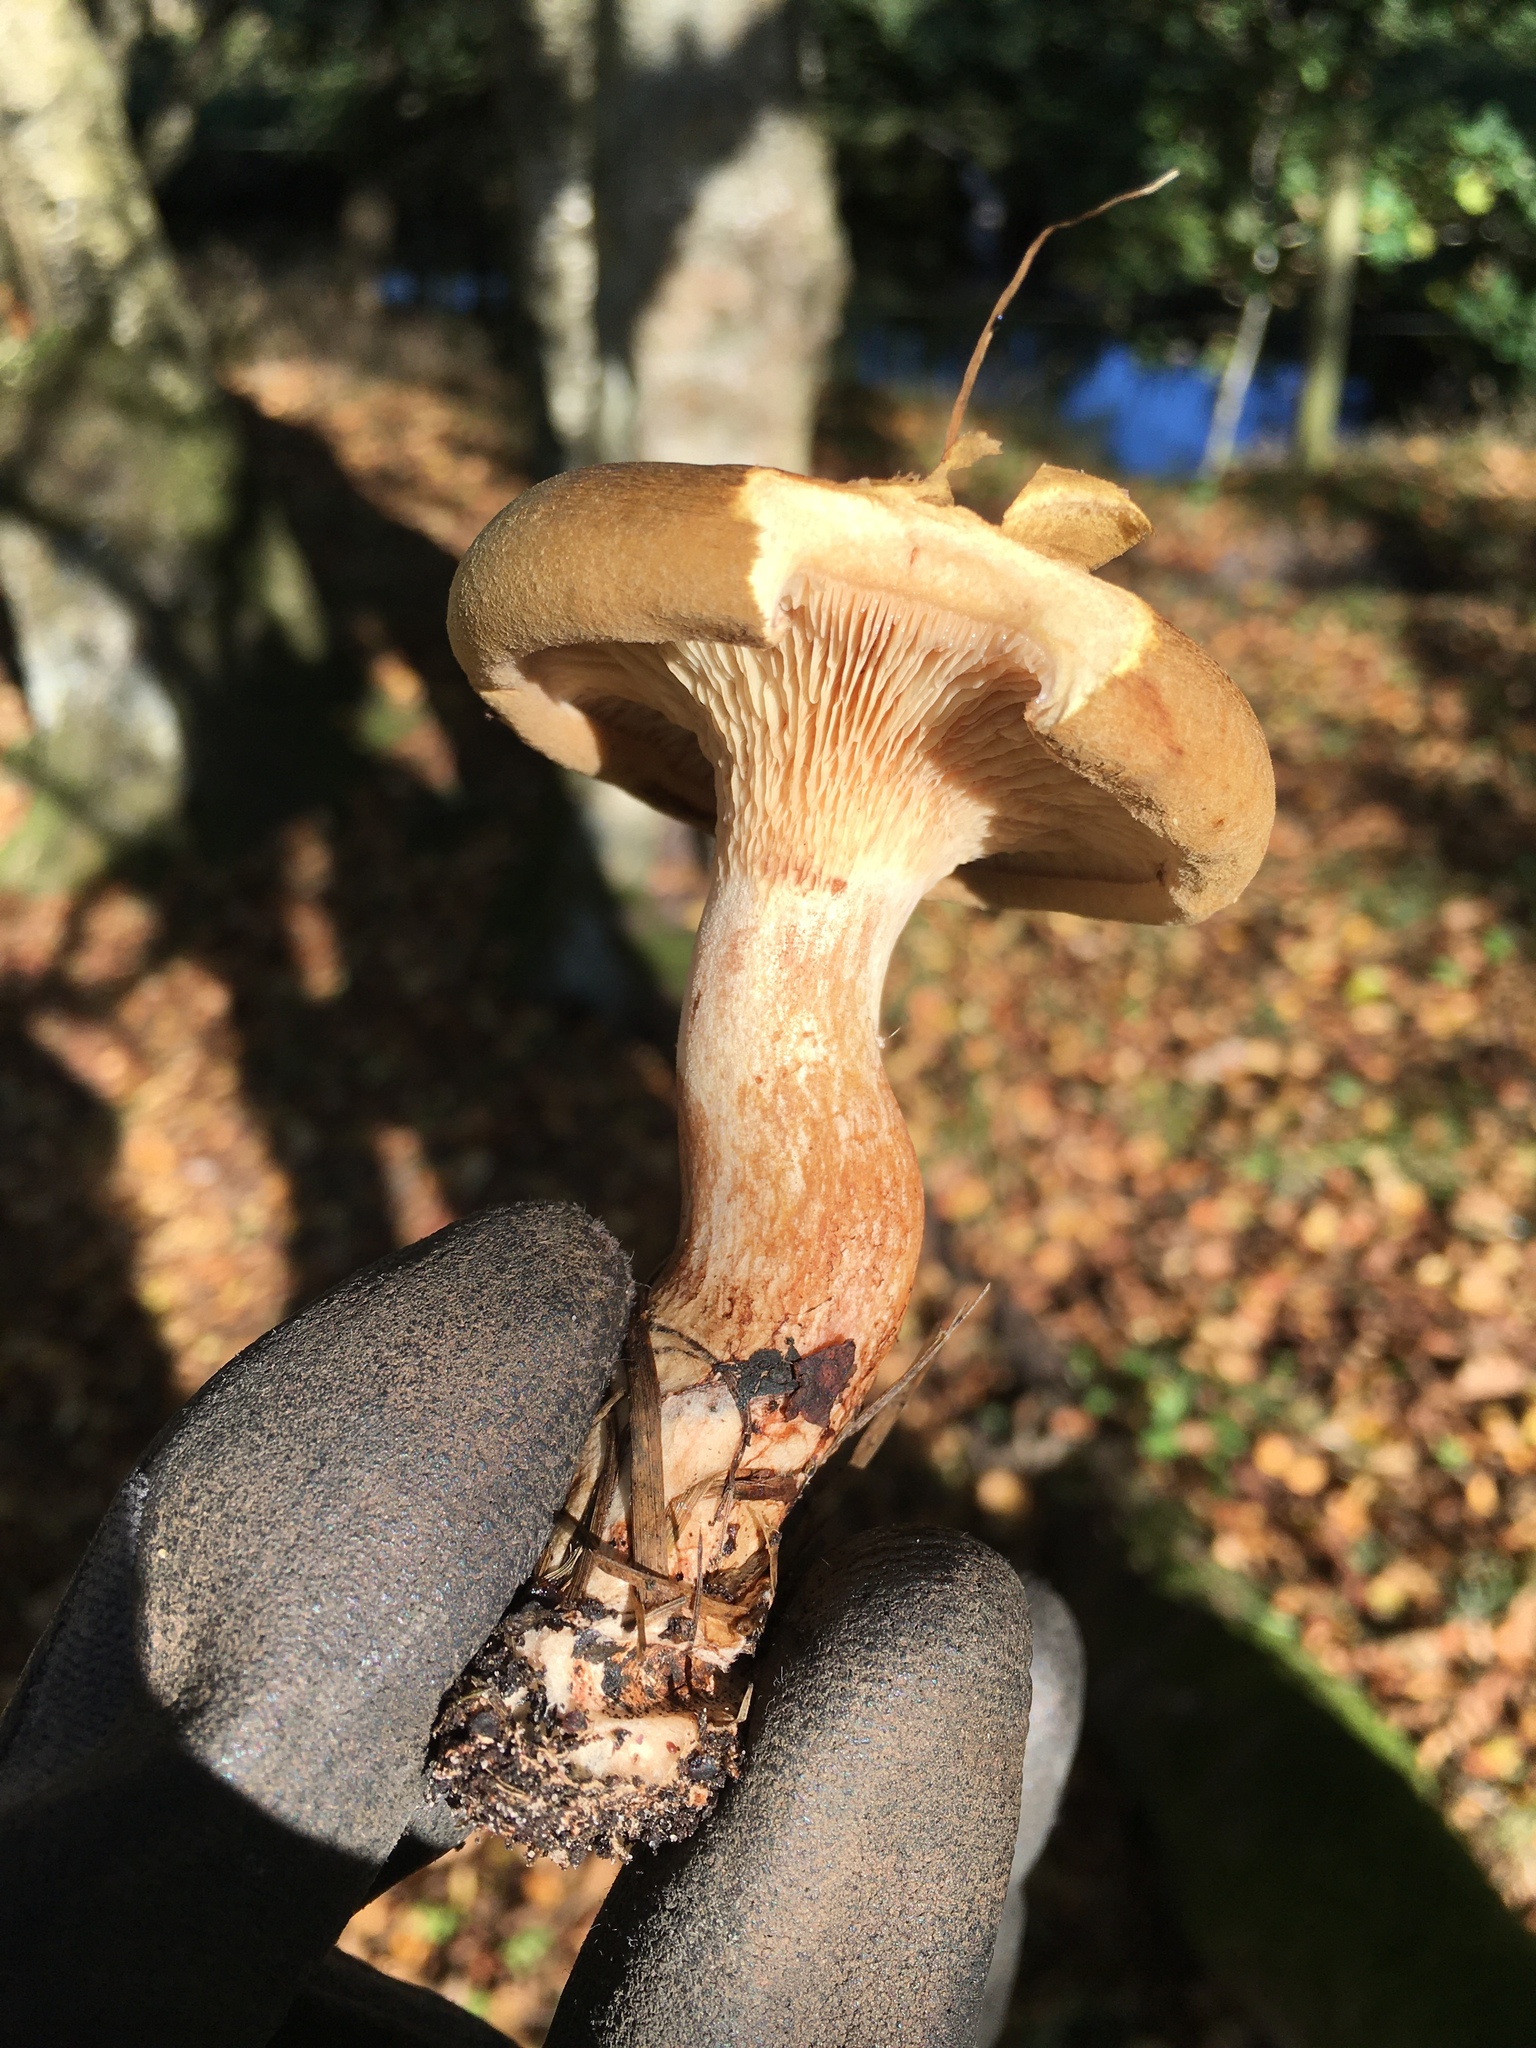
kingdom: Fungi
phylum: Basidiomycota
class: Agaricomycetes
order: Boletales
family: Paxillaceae
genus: Paxillus
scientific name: Paxillus involutus
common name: Brown roll rim
